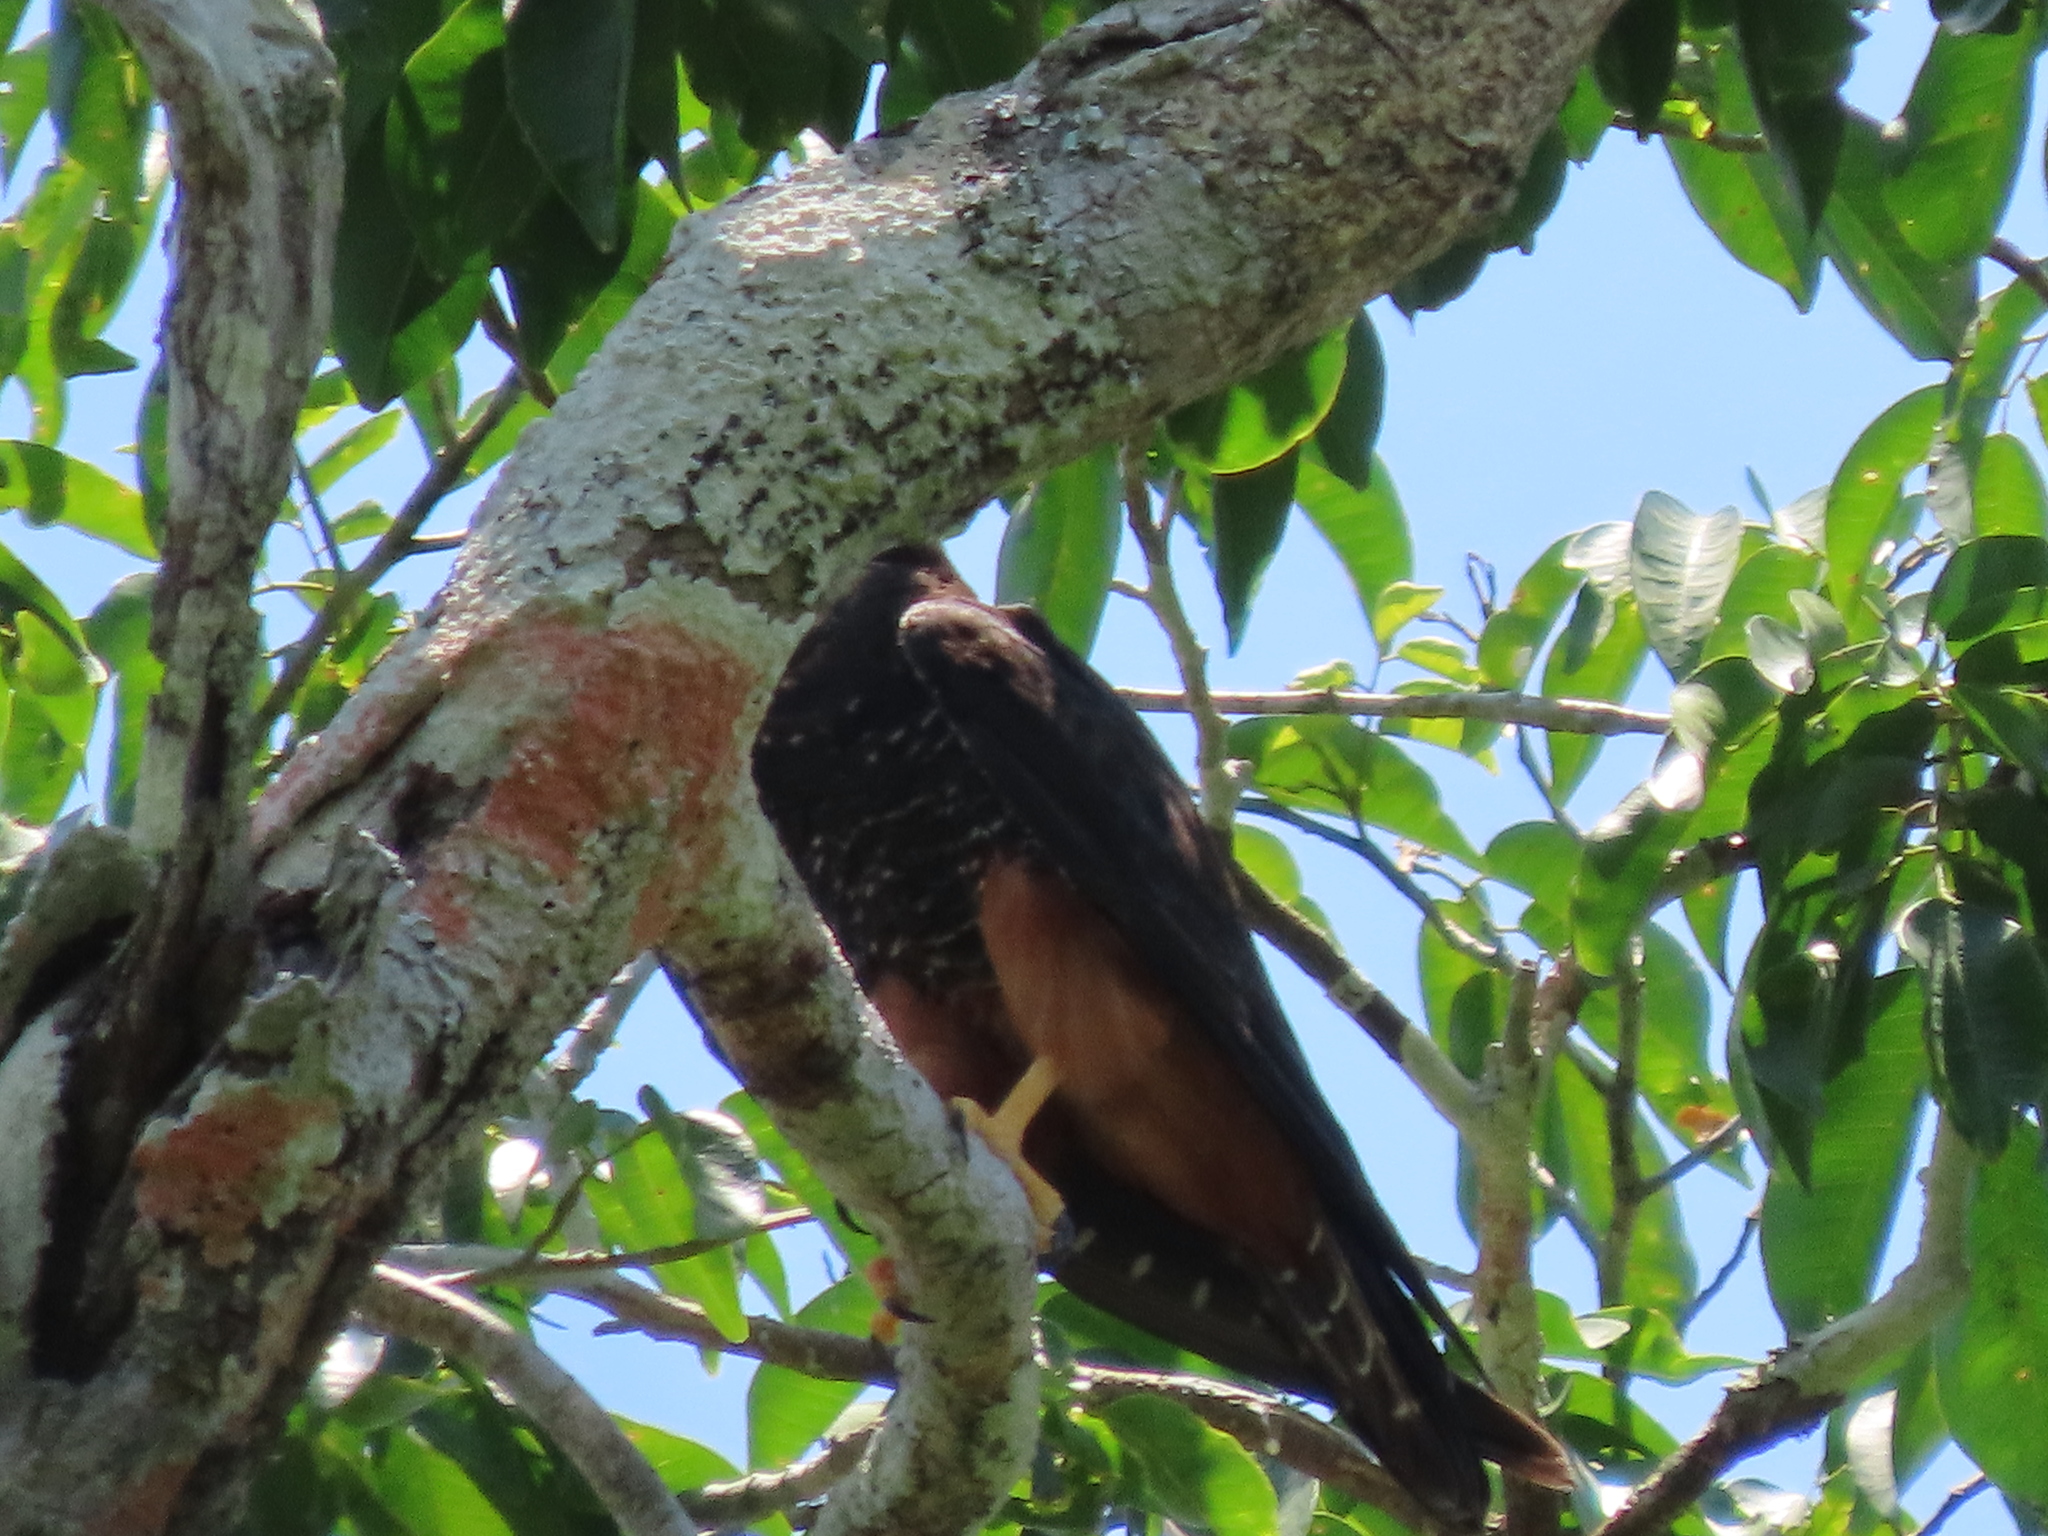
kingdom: Animalia
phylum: Chordata
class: Aves
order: Falconiformes
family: Falconidae
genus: Falco
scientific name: Falco rufigularis
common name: Bat falcon
